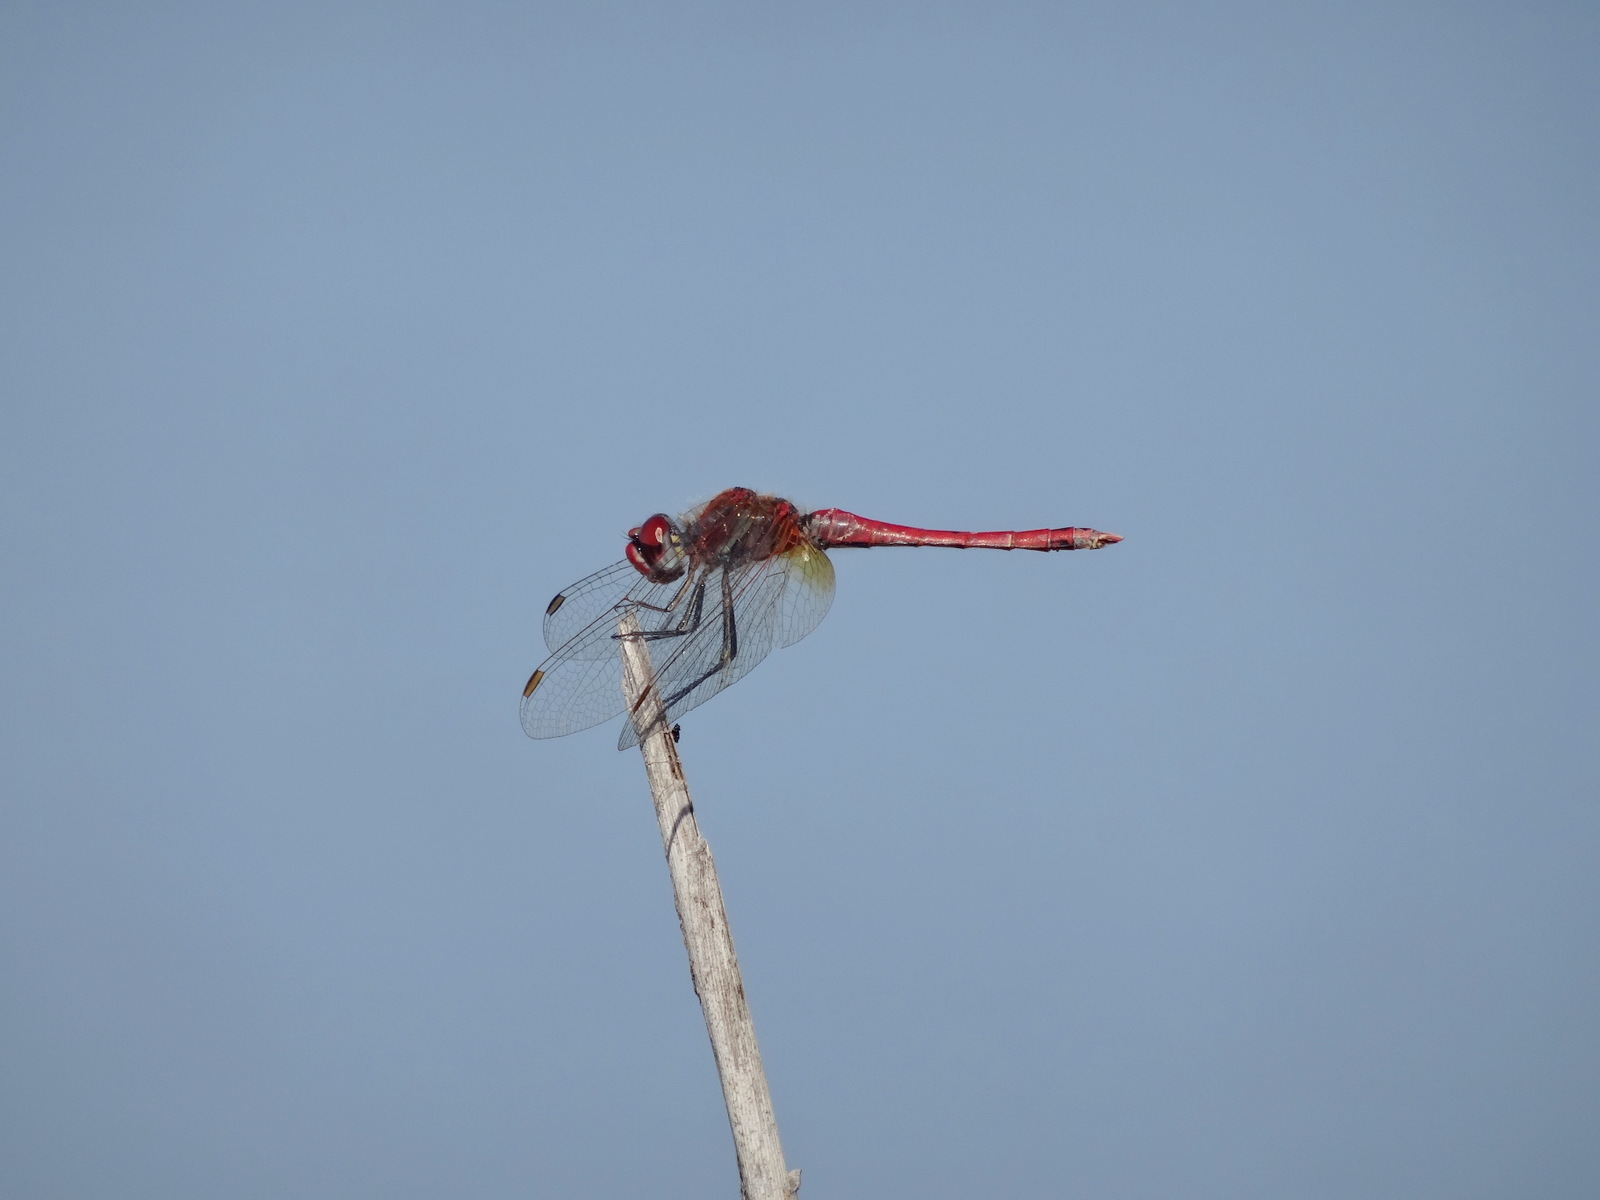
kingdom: Animalia
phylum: Arthropoda
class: Insecta
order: Odonata
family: Libellulidae
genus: Sympetrum
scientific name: Sympetrum fonscolombii
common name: Red-veined darter
